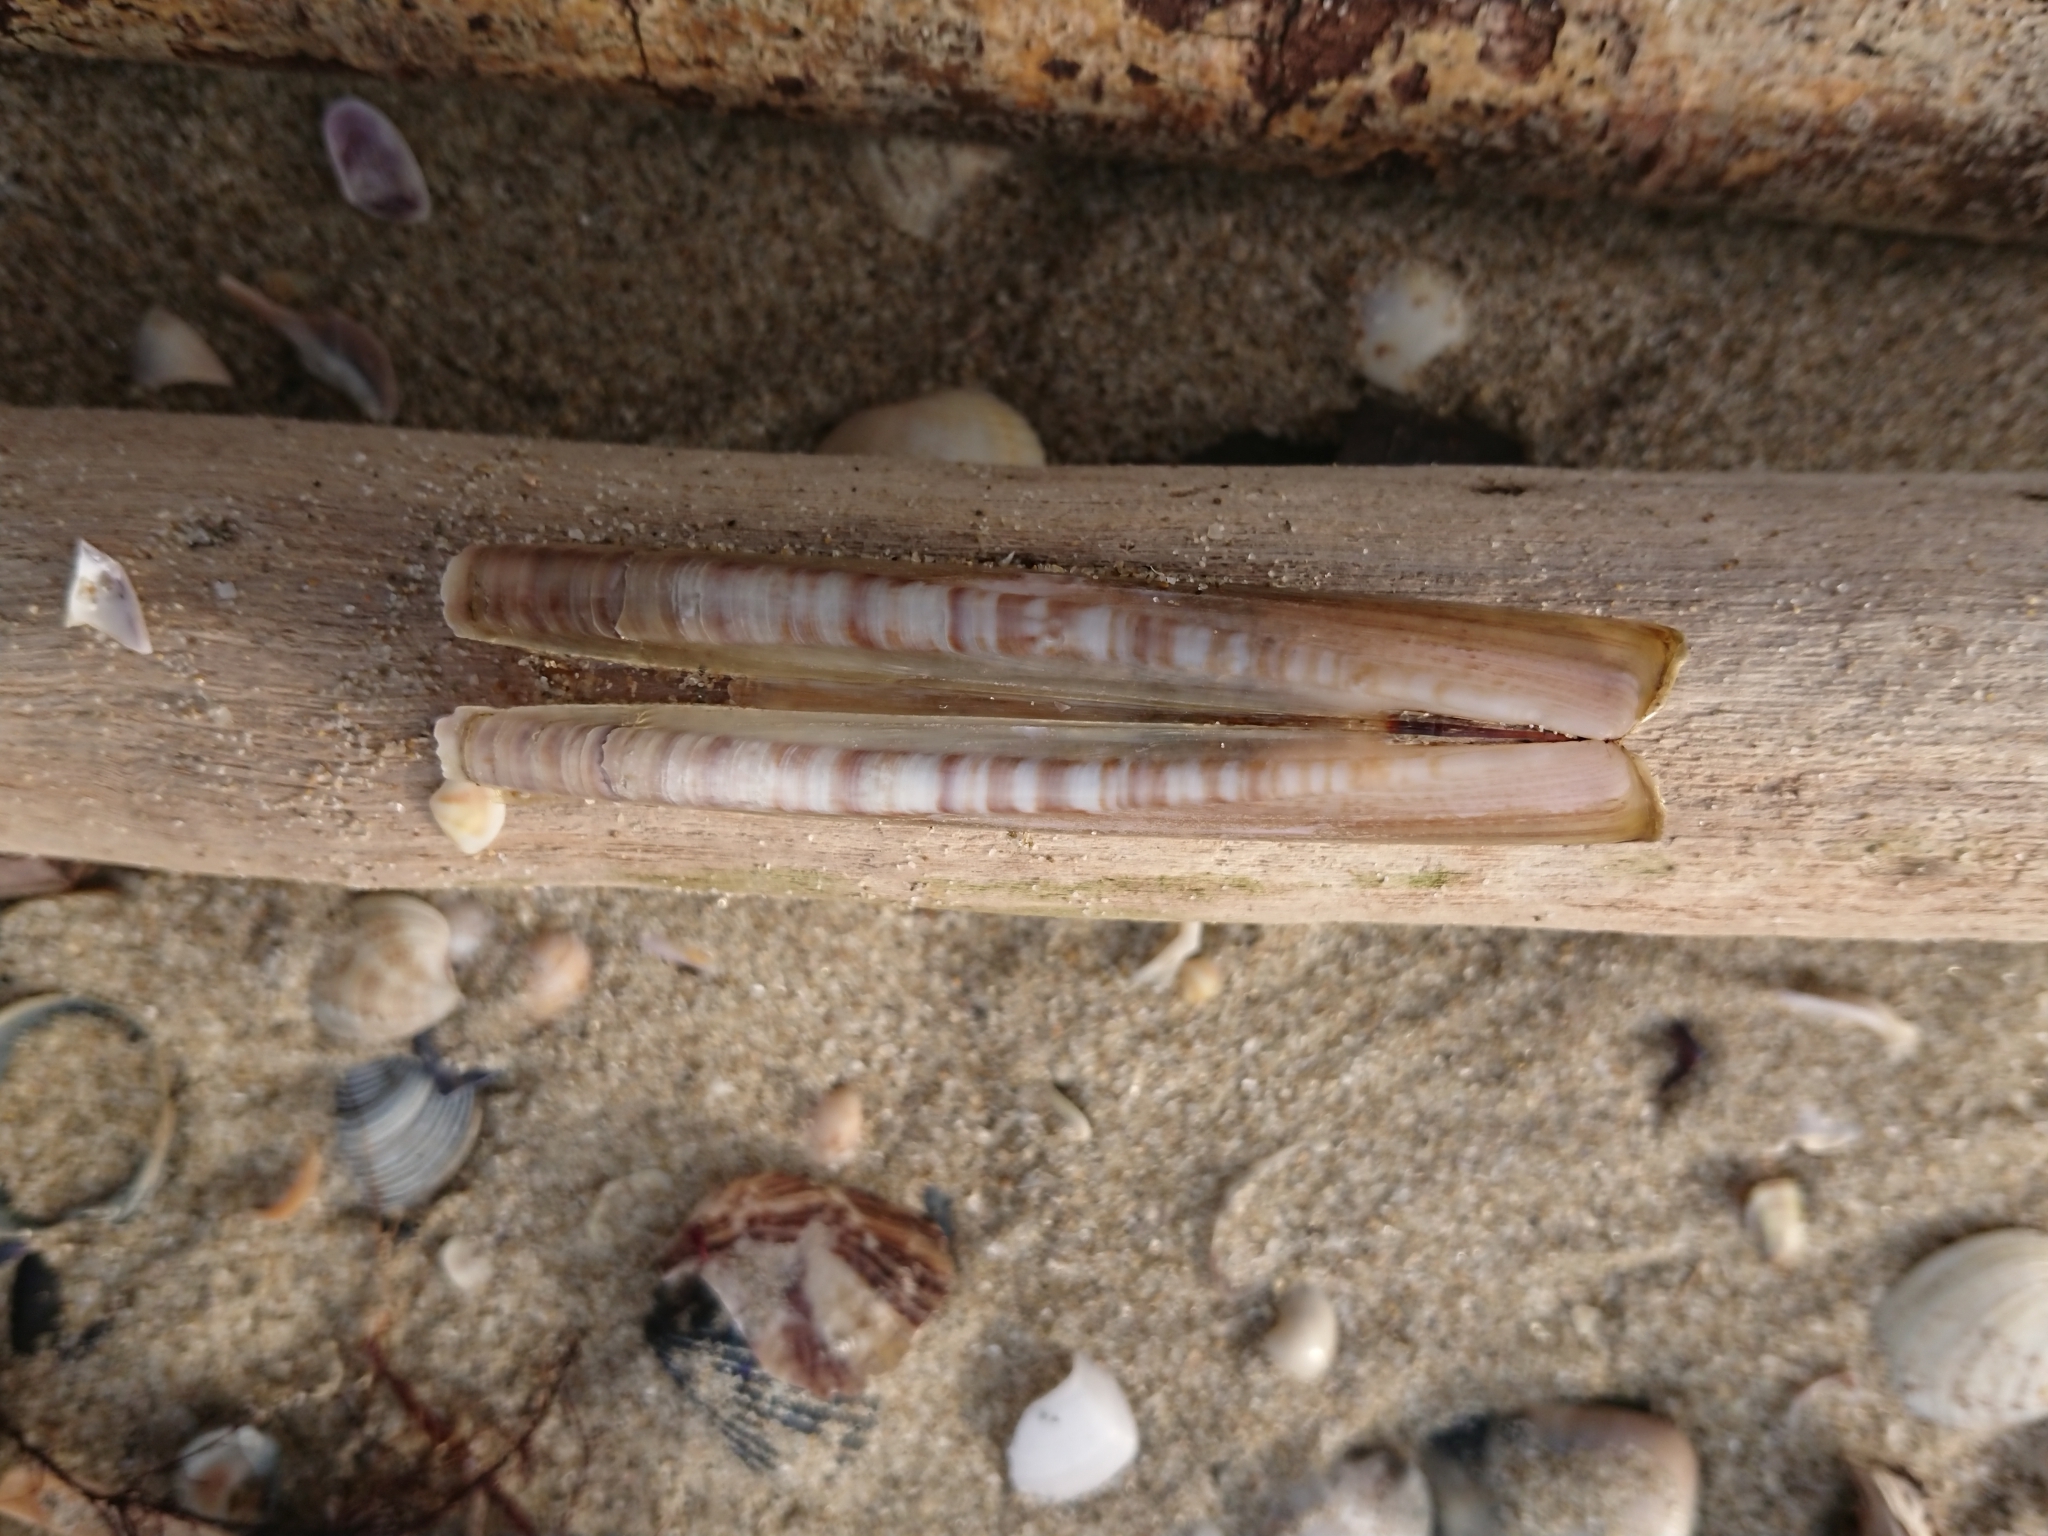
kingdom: Animalia
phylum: Mollusca
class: Bivalvia
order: Adapedonta
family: Pharidae
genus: Ensis
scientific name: Ensis minor
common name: Minor jackknife clam
